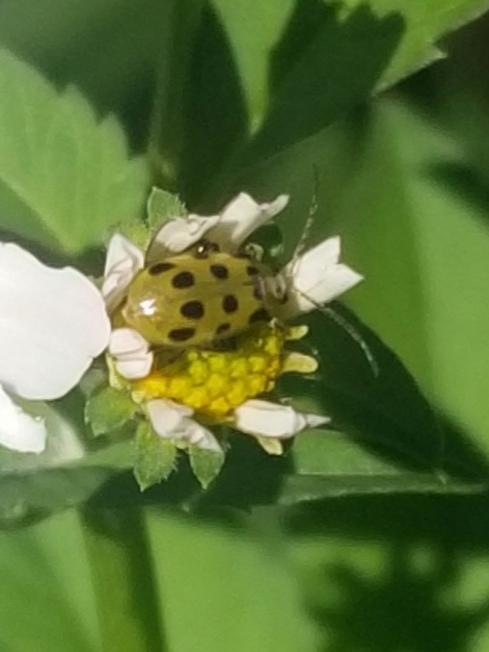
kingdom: Animalia
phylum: Arthropoda
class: Insecta
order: Coleoptera
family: Chrysomelidae
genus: Diabrotica
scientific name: Diabrotica undecimpunctata
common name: Spotted cucumber beetle
